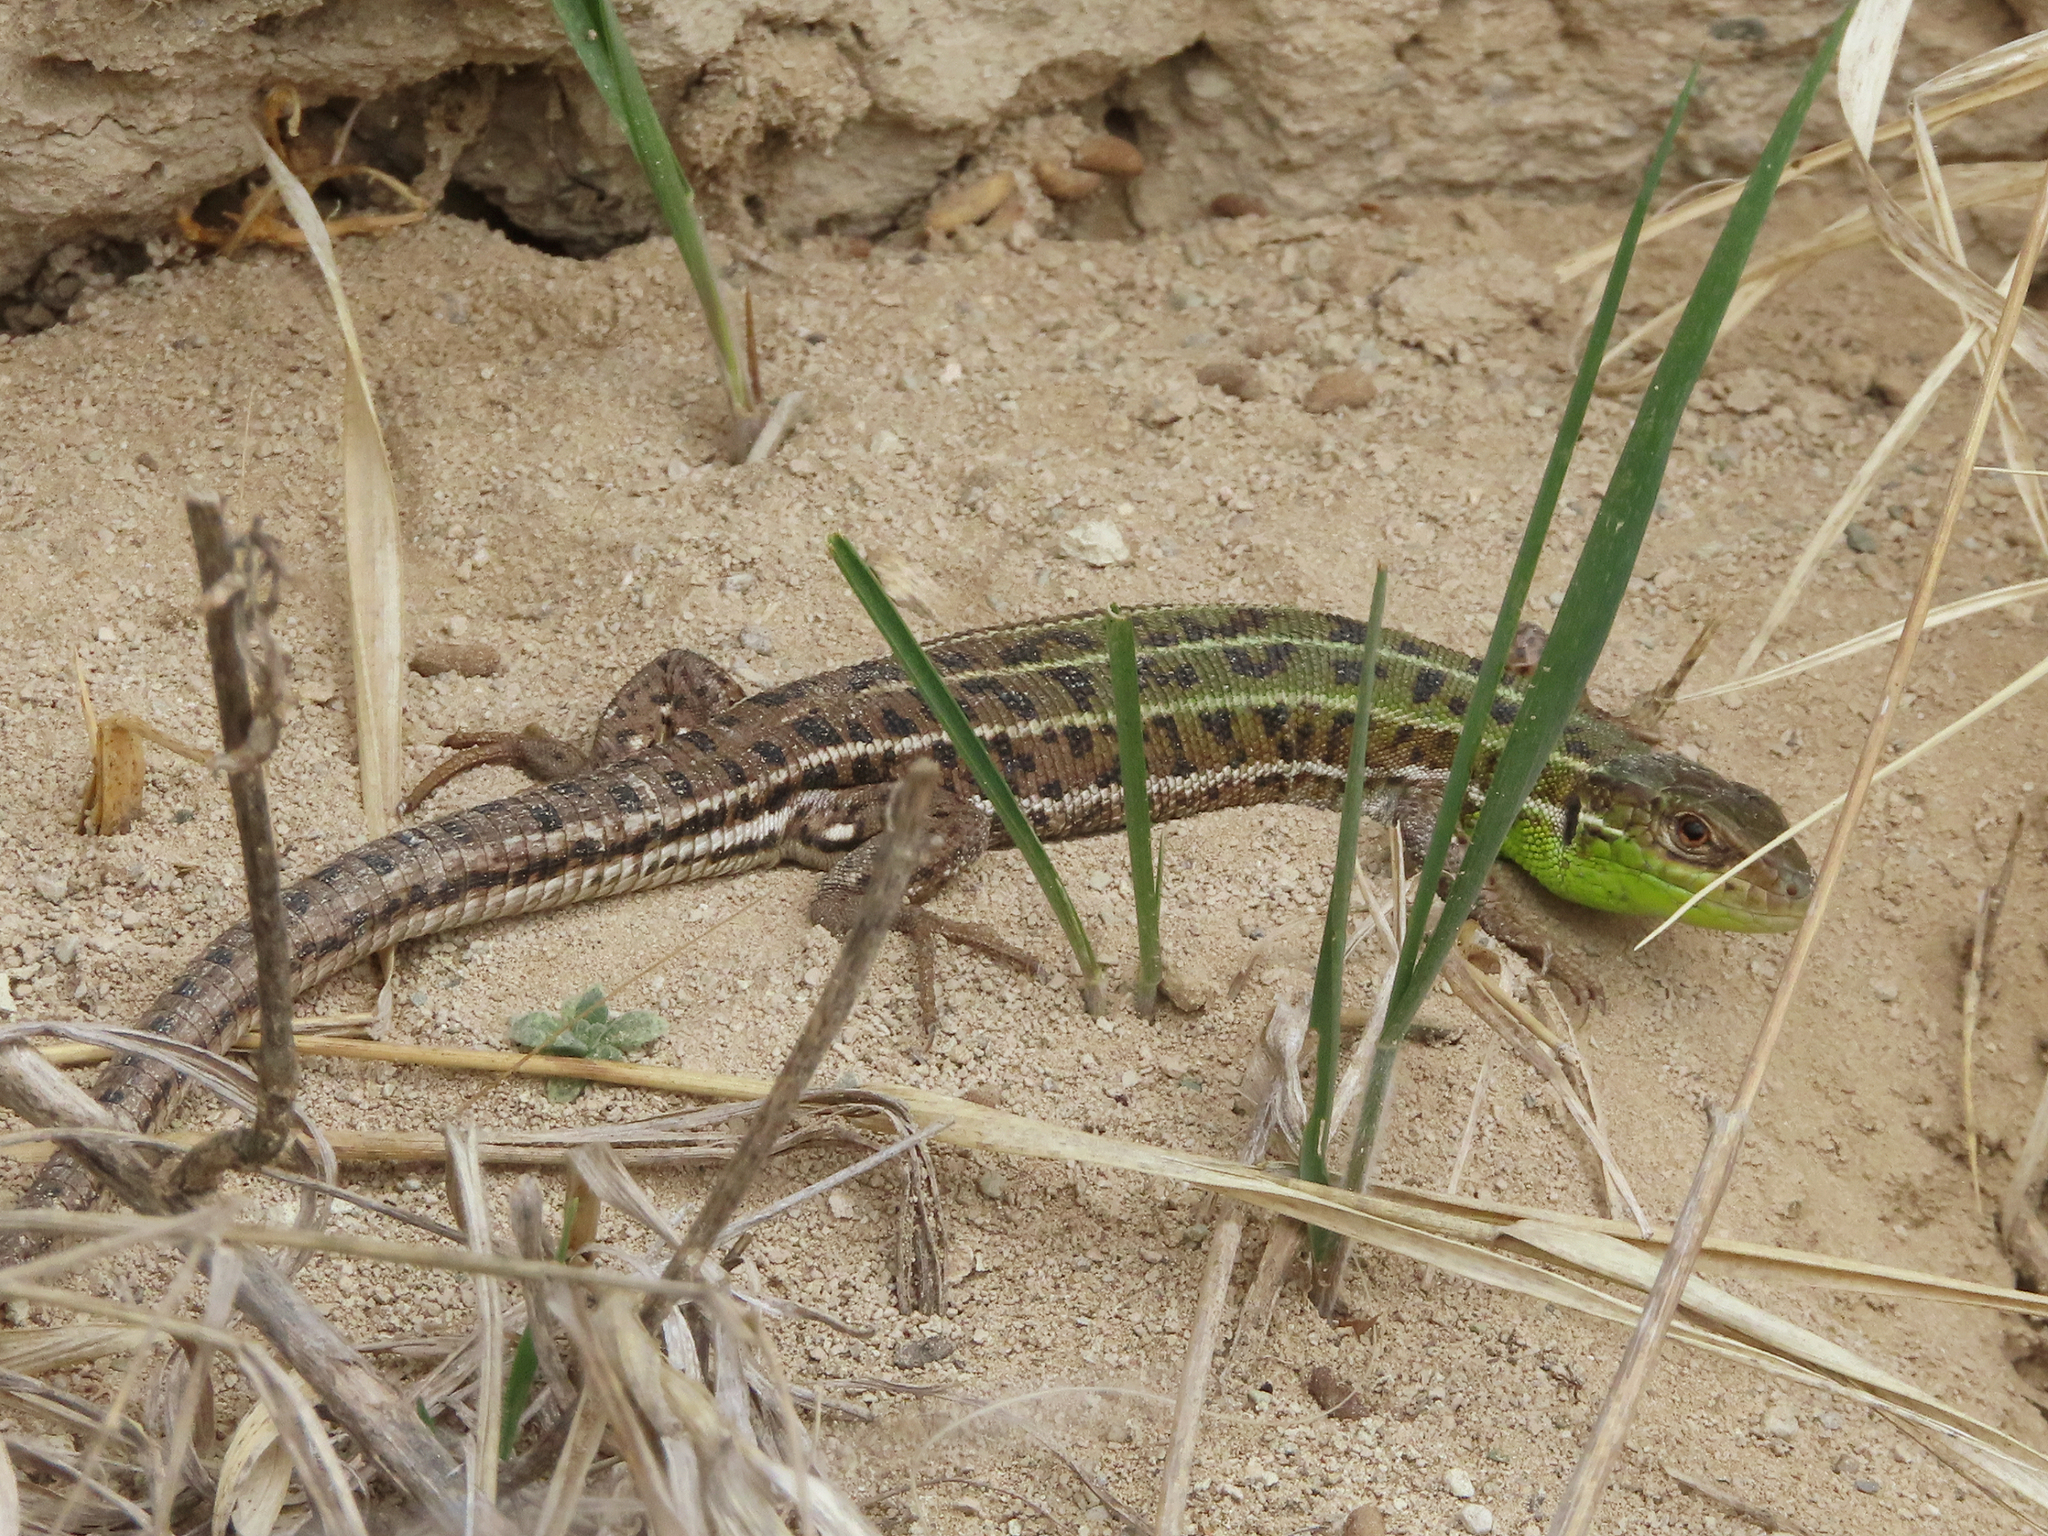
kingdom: Animalia
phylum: Chordata
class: Squamata
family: Lacertidae
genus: Lacerta
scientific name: Lacerta strigata
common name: Caspian green lizard
